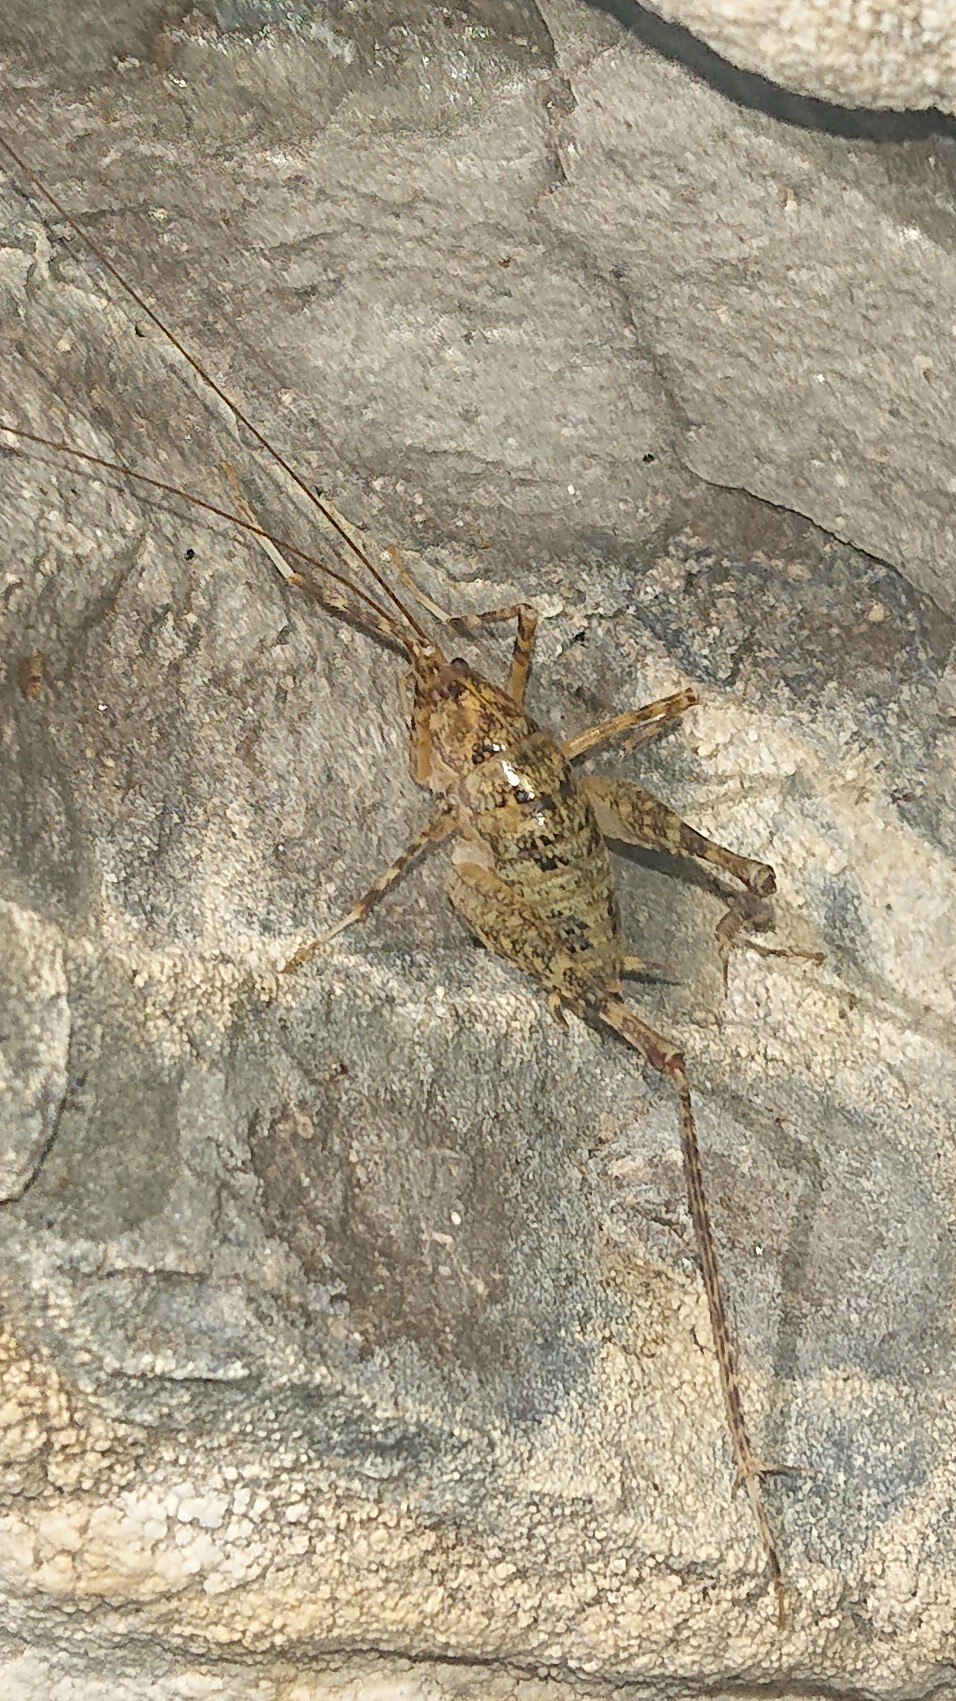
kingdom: Animalia
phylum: Arthropoda
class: Insecta
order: Orthoptera
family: Rhaphidophoridae
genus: Troglophilus
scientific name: Troglophilus neglectus
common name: Neglected cave-cricket
